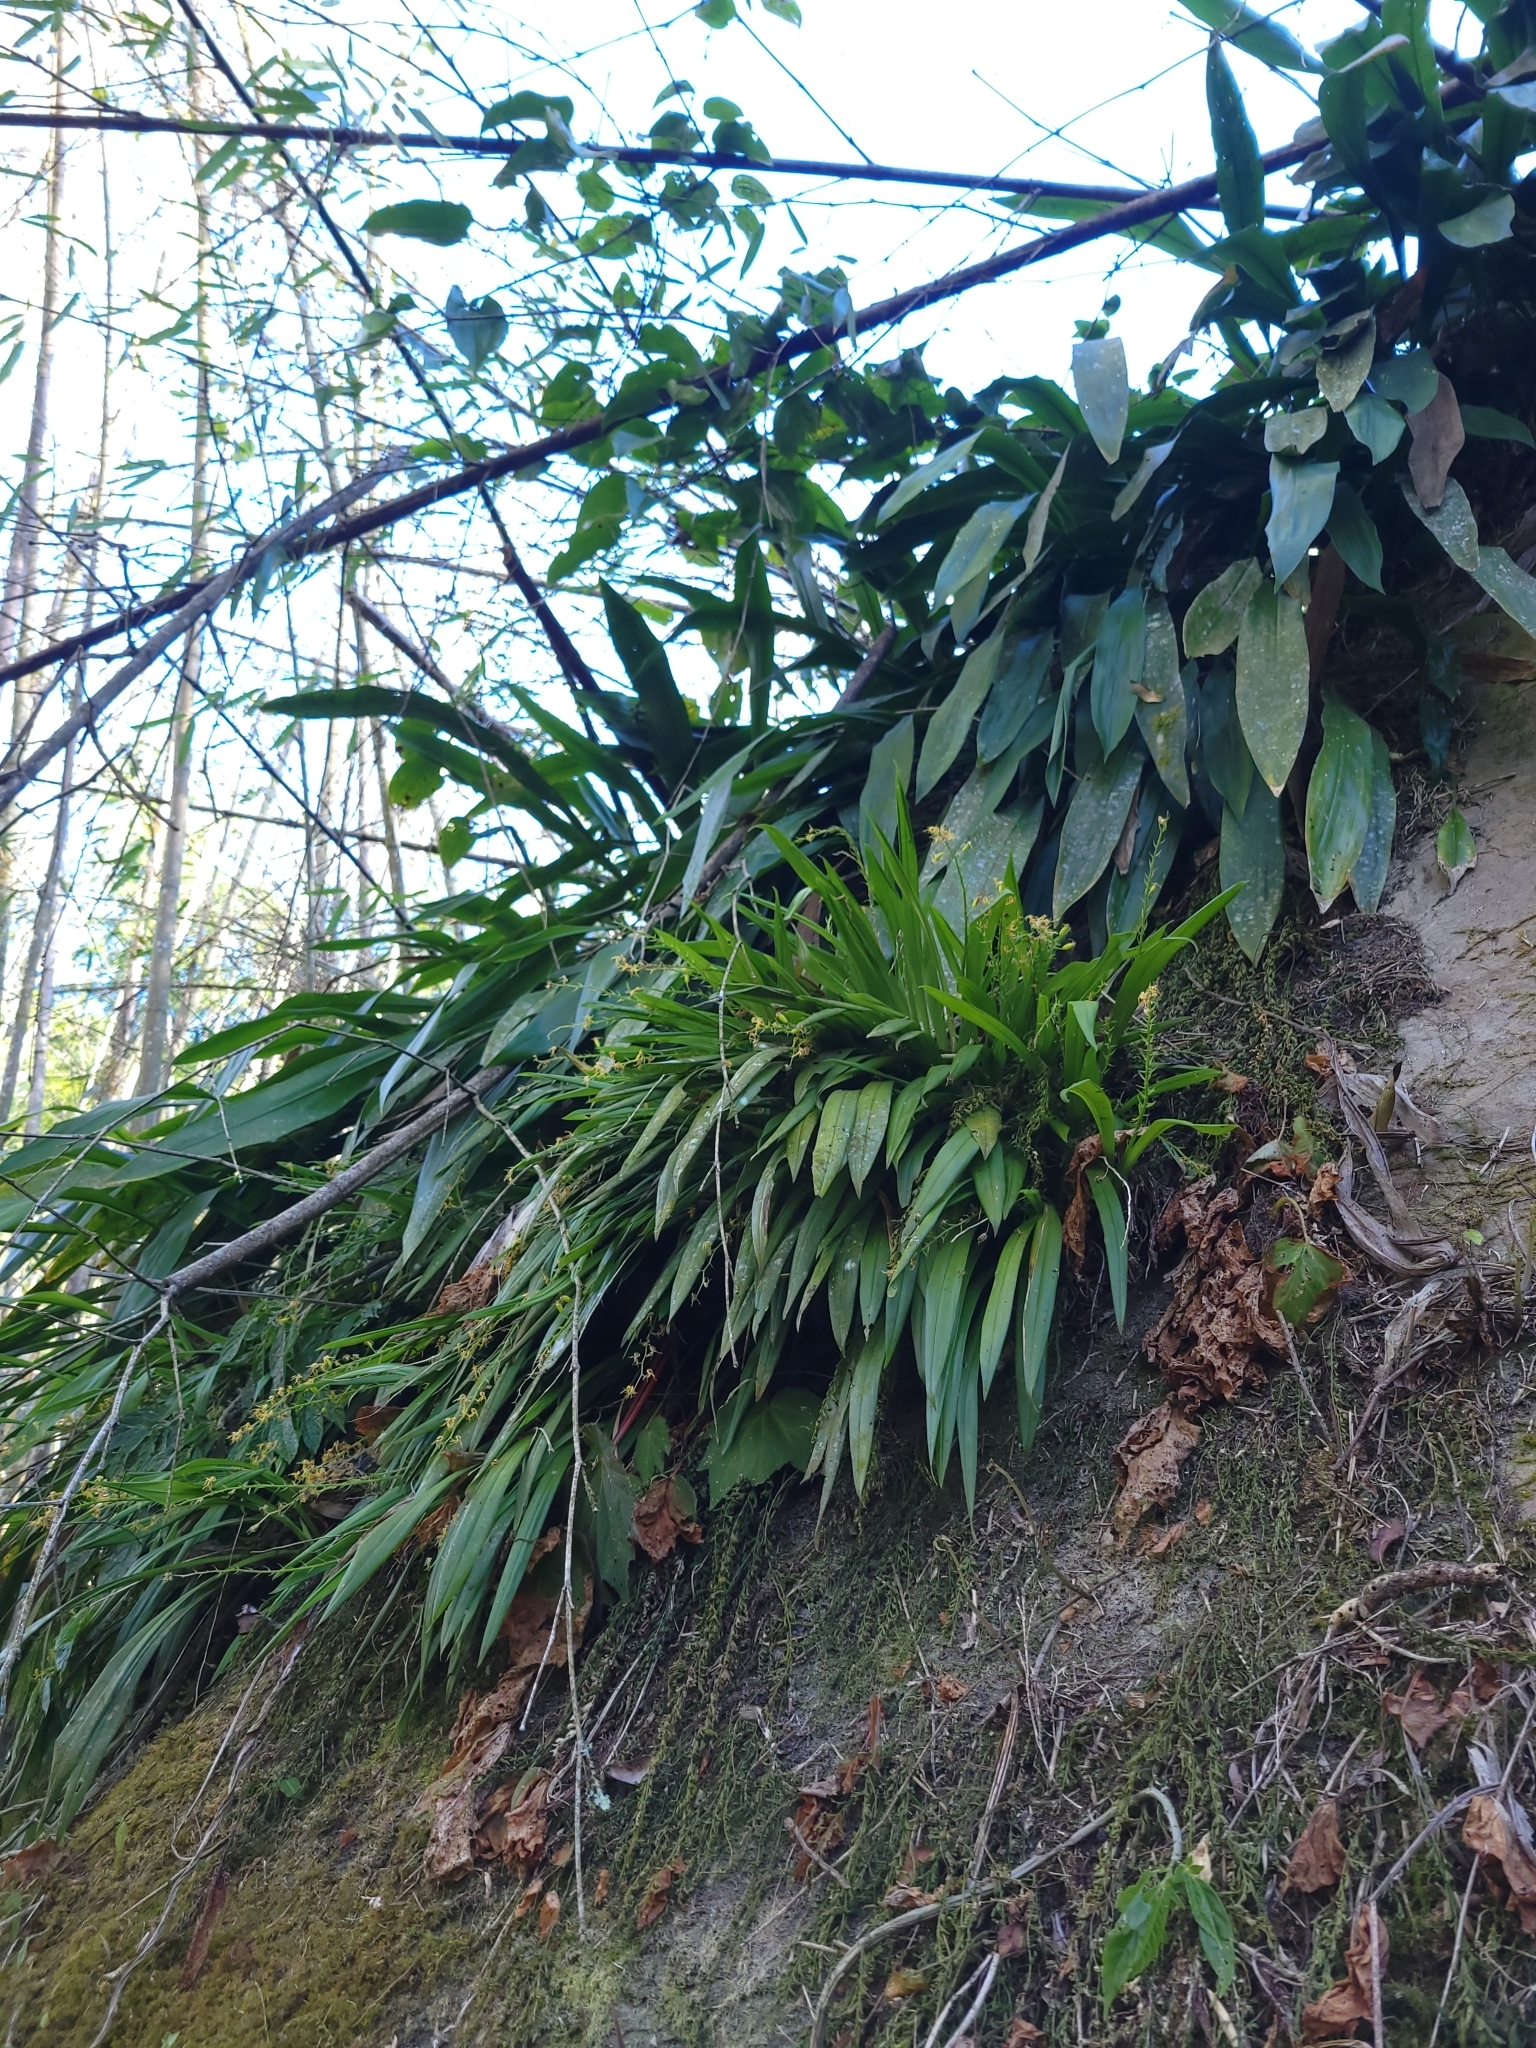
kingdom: Plantae
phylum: Tracheophyta
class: Liliopsida
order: Asparagales
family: Orchidaceae
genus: Liparis
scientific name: Liparis nakaharae
